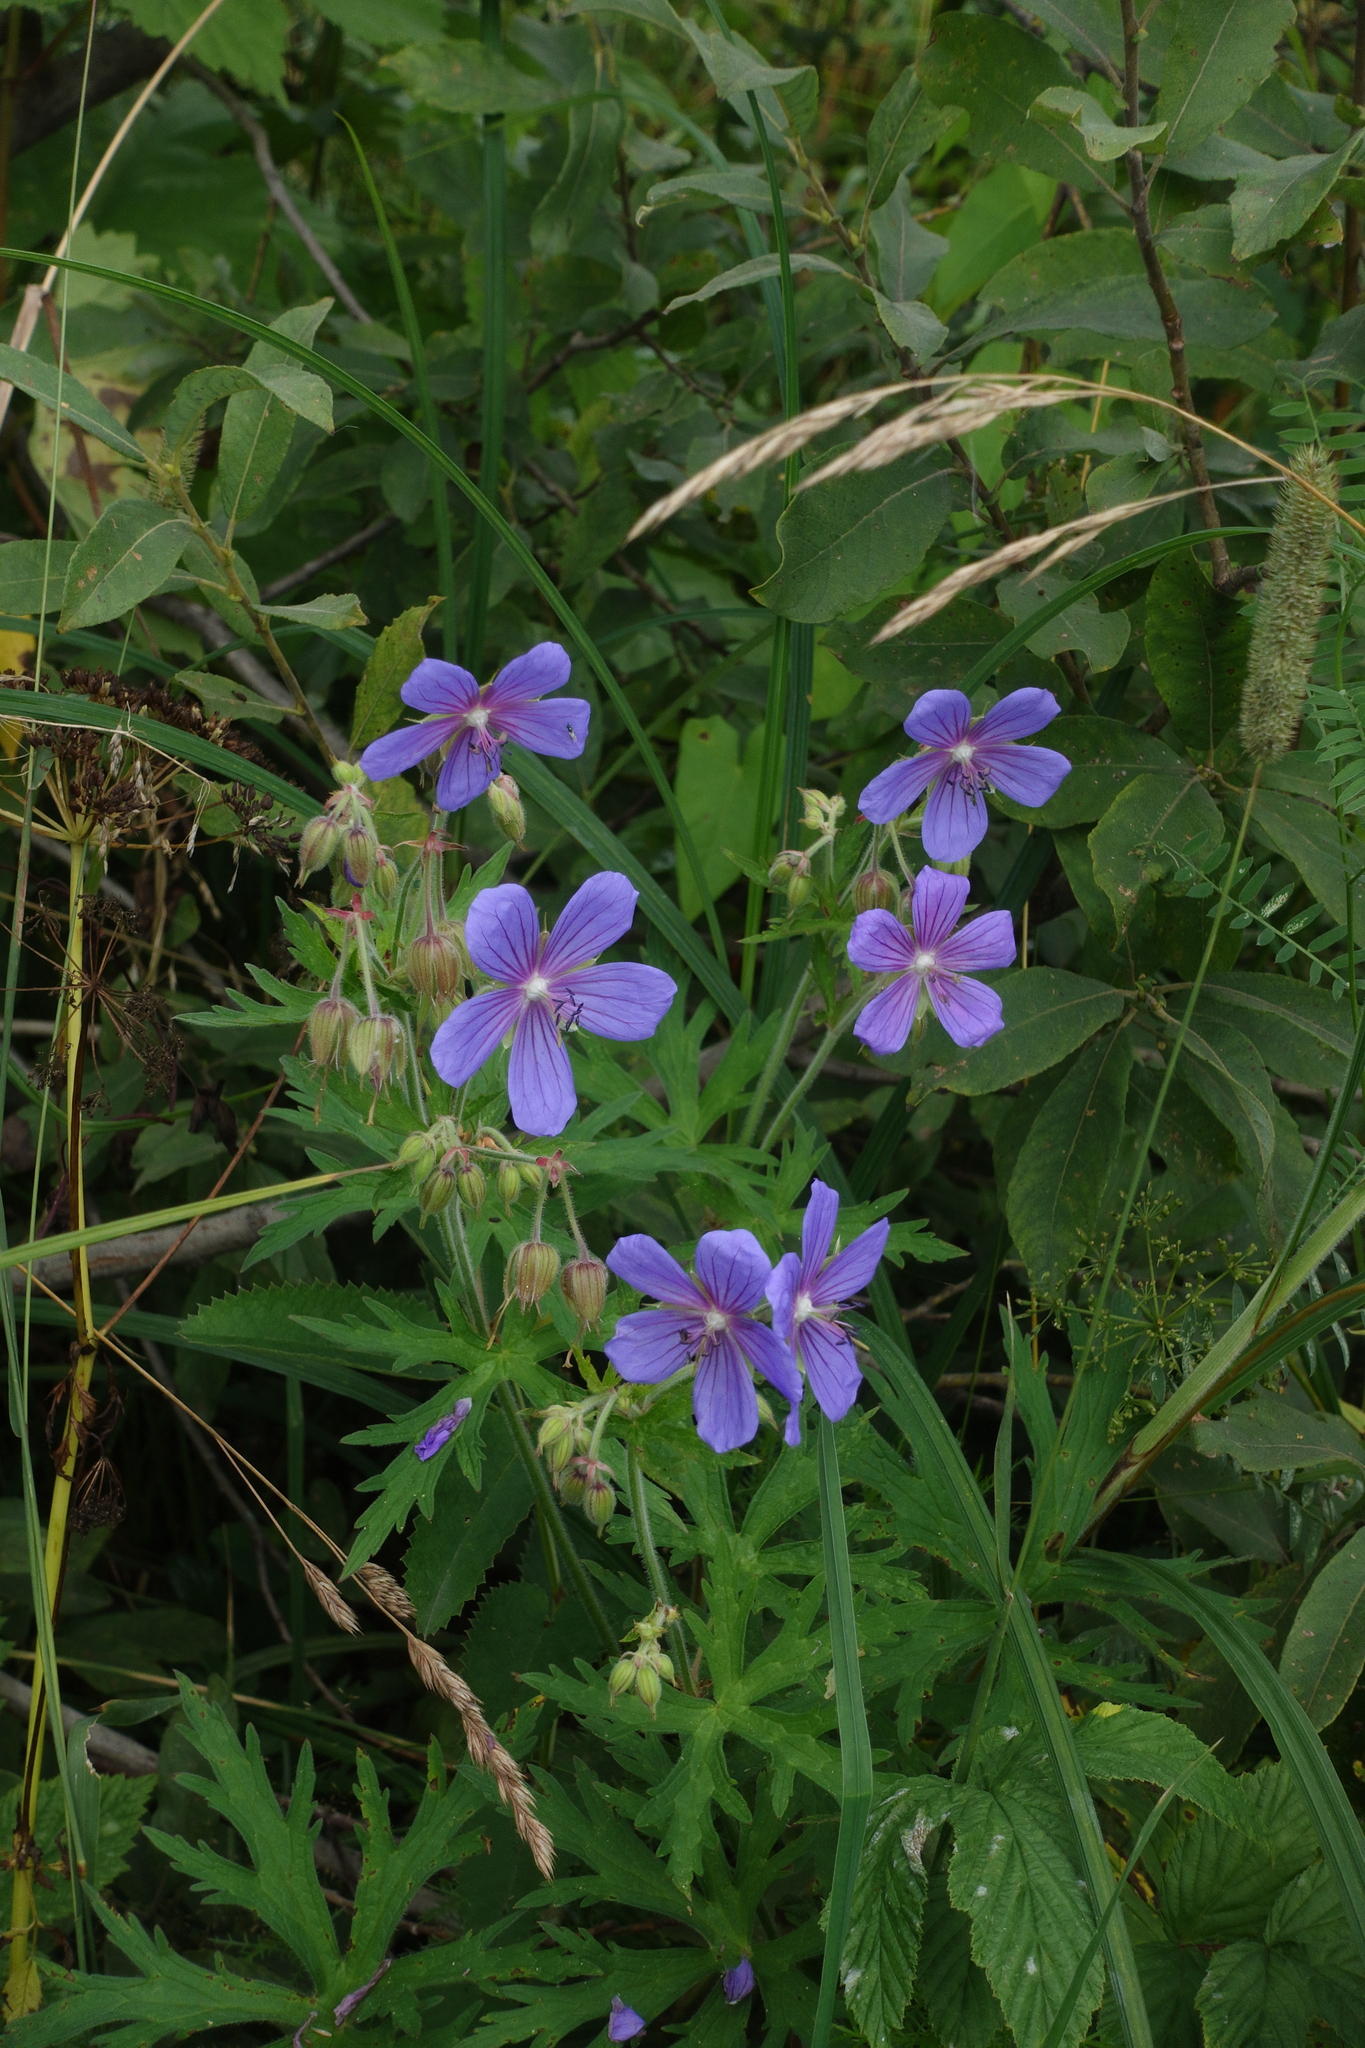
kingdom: Plantae
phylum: Tracheophyta
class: Magnoliopsida
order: Geraniales
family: Geraniaceae
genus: Geranium
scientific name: Geranium pratense
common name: Meadow crane's-bill
